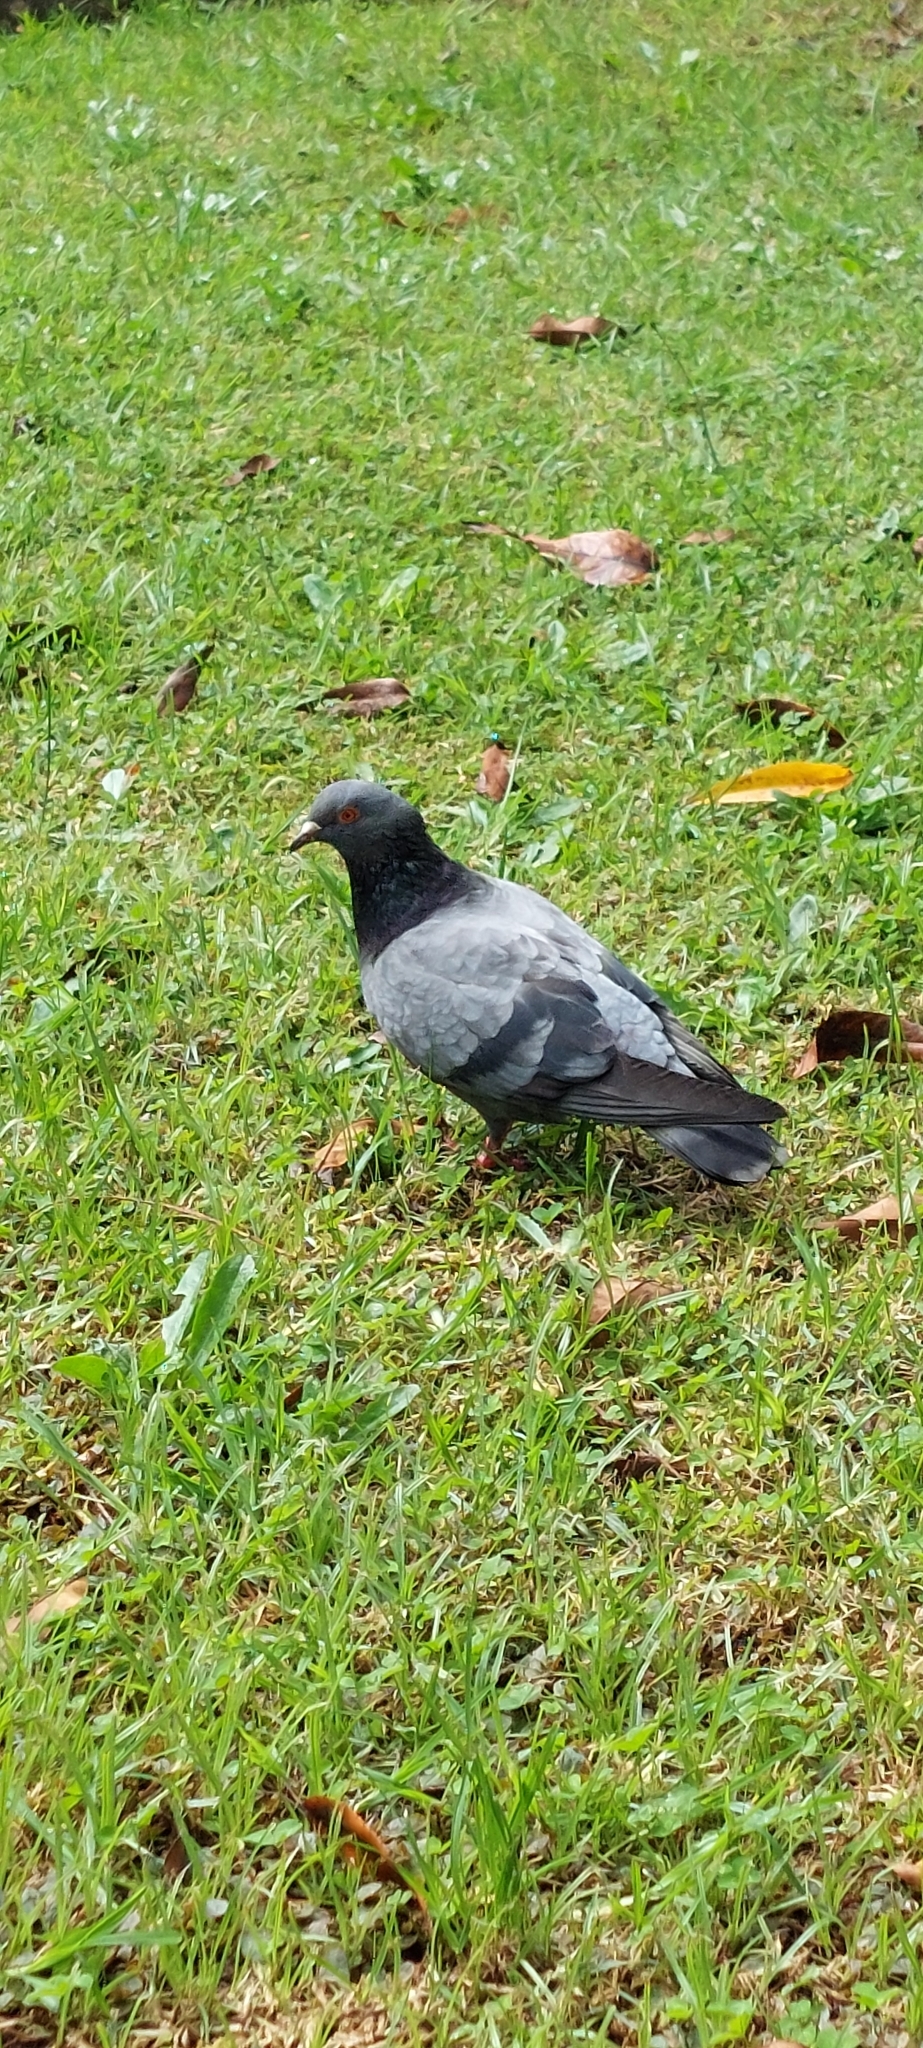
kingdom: Animalia
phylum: Chordata
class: Aves
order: Columbiformes
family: Columbidae
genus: Columba
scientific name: Columba livia
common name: Rock pigeon
